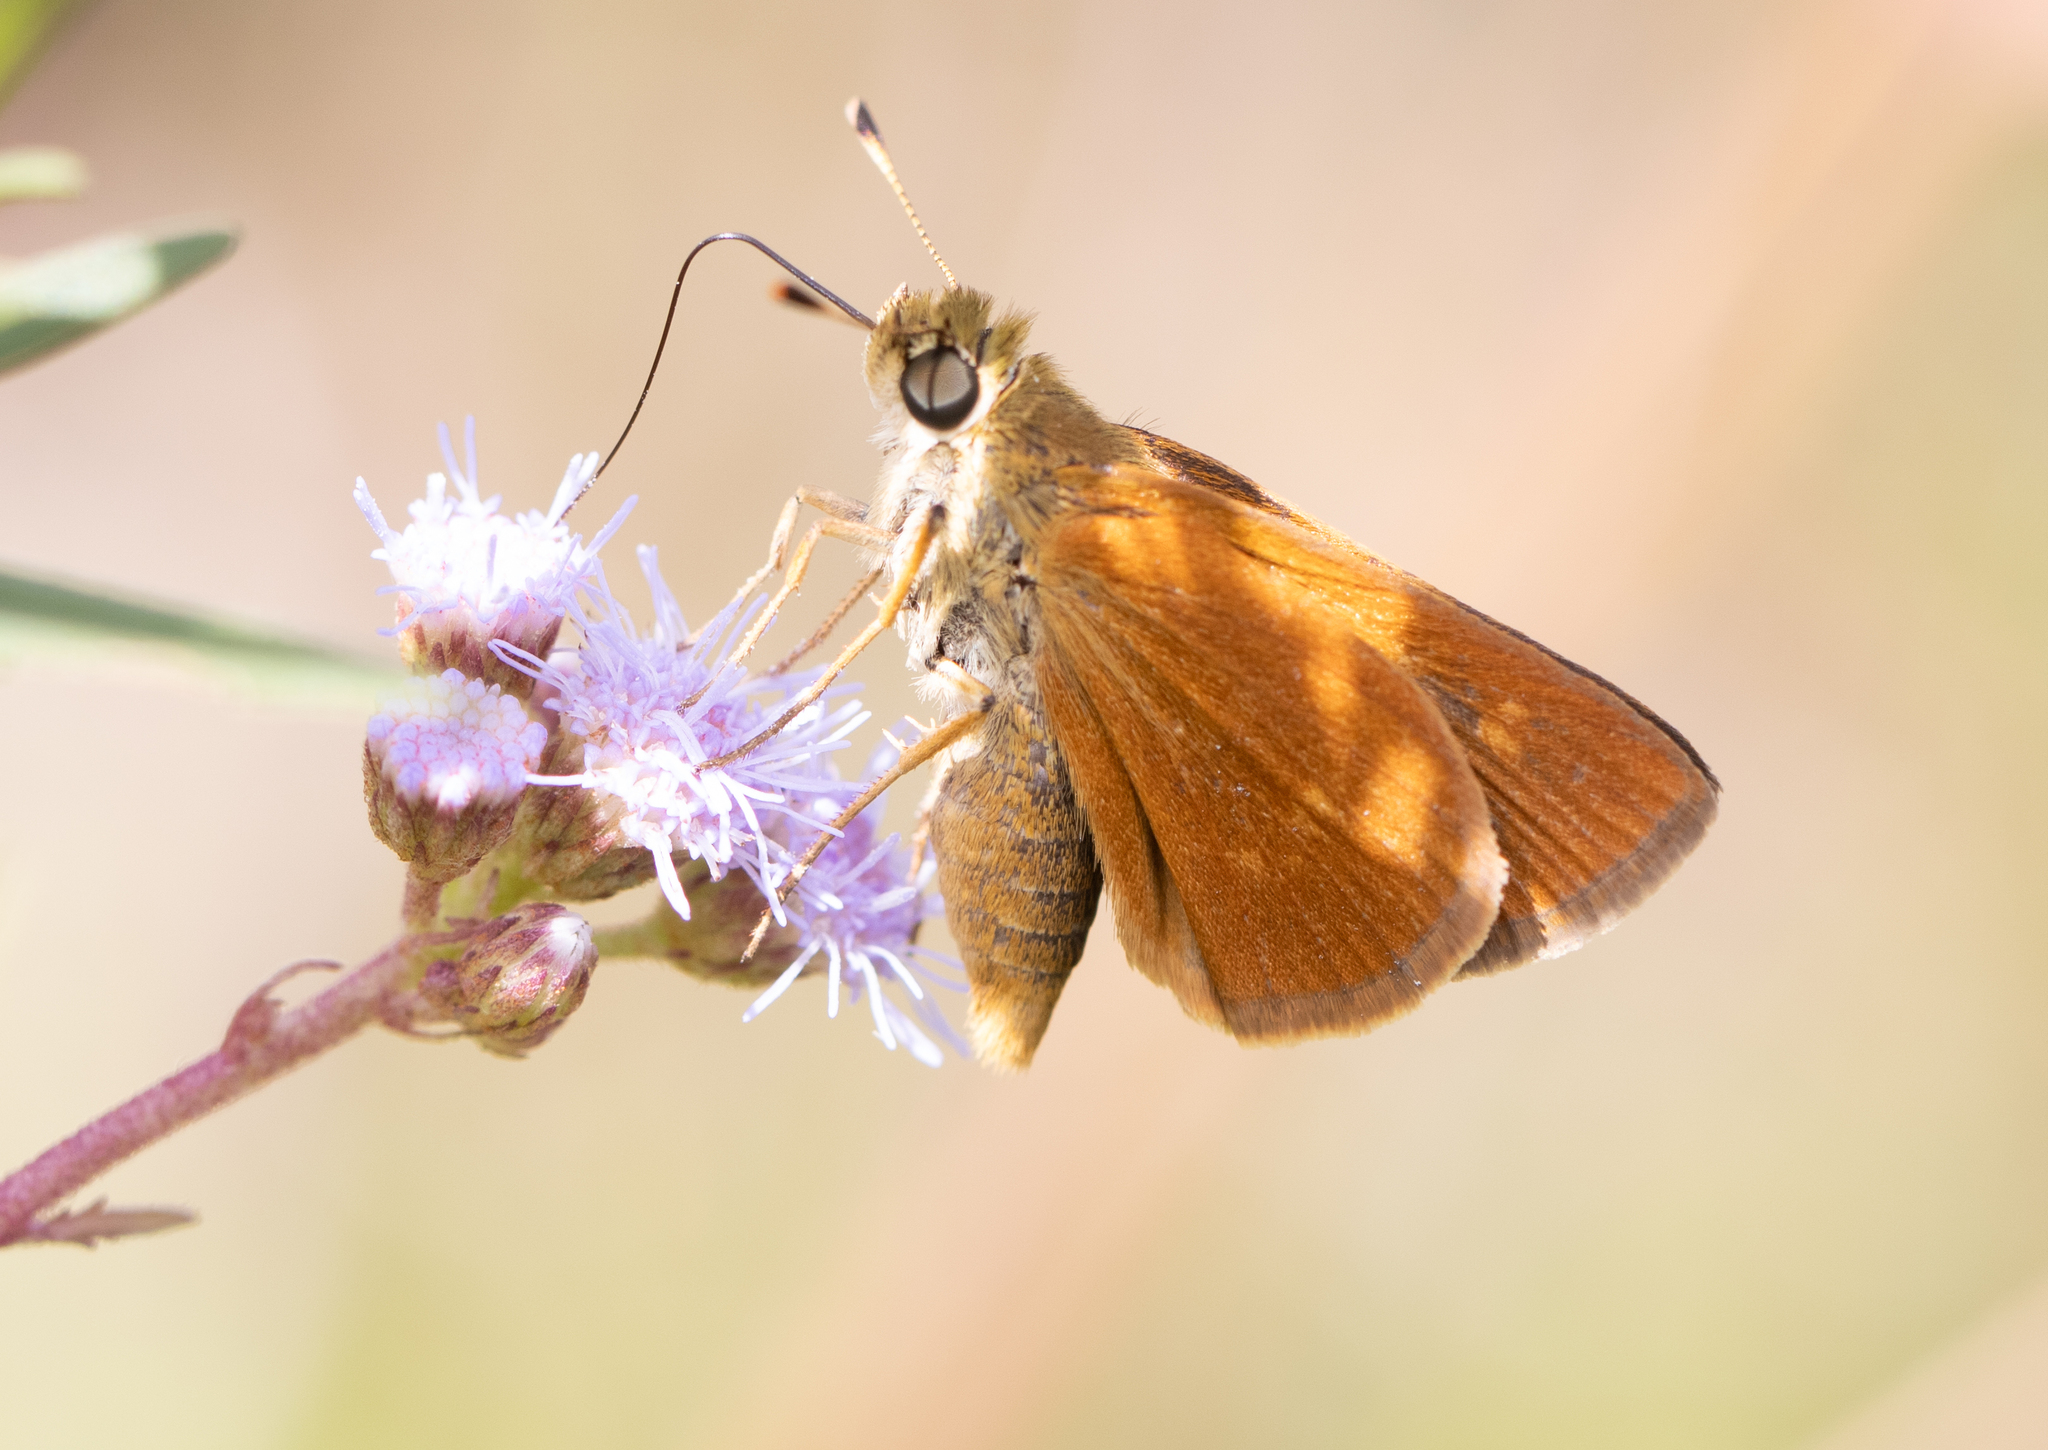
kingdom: Animalia
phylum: Arthropoda
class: Insecta
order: Lepidoptera
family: Hesperiidae
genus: Polites
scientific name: Polites otho
